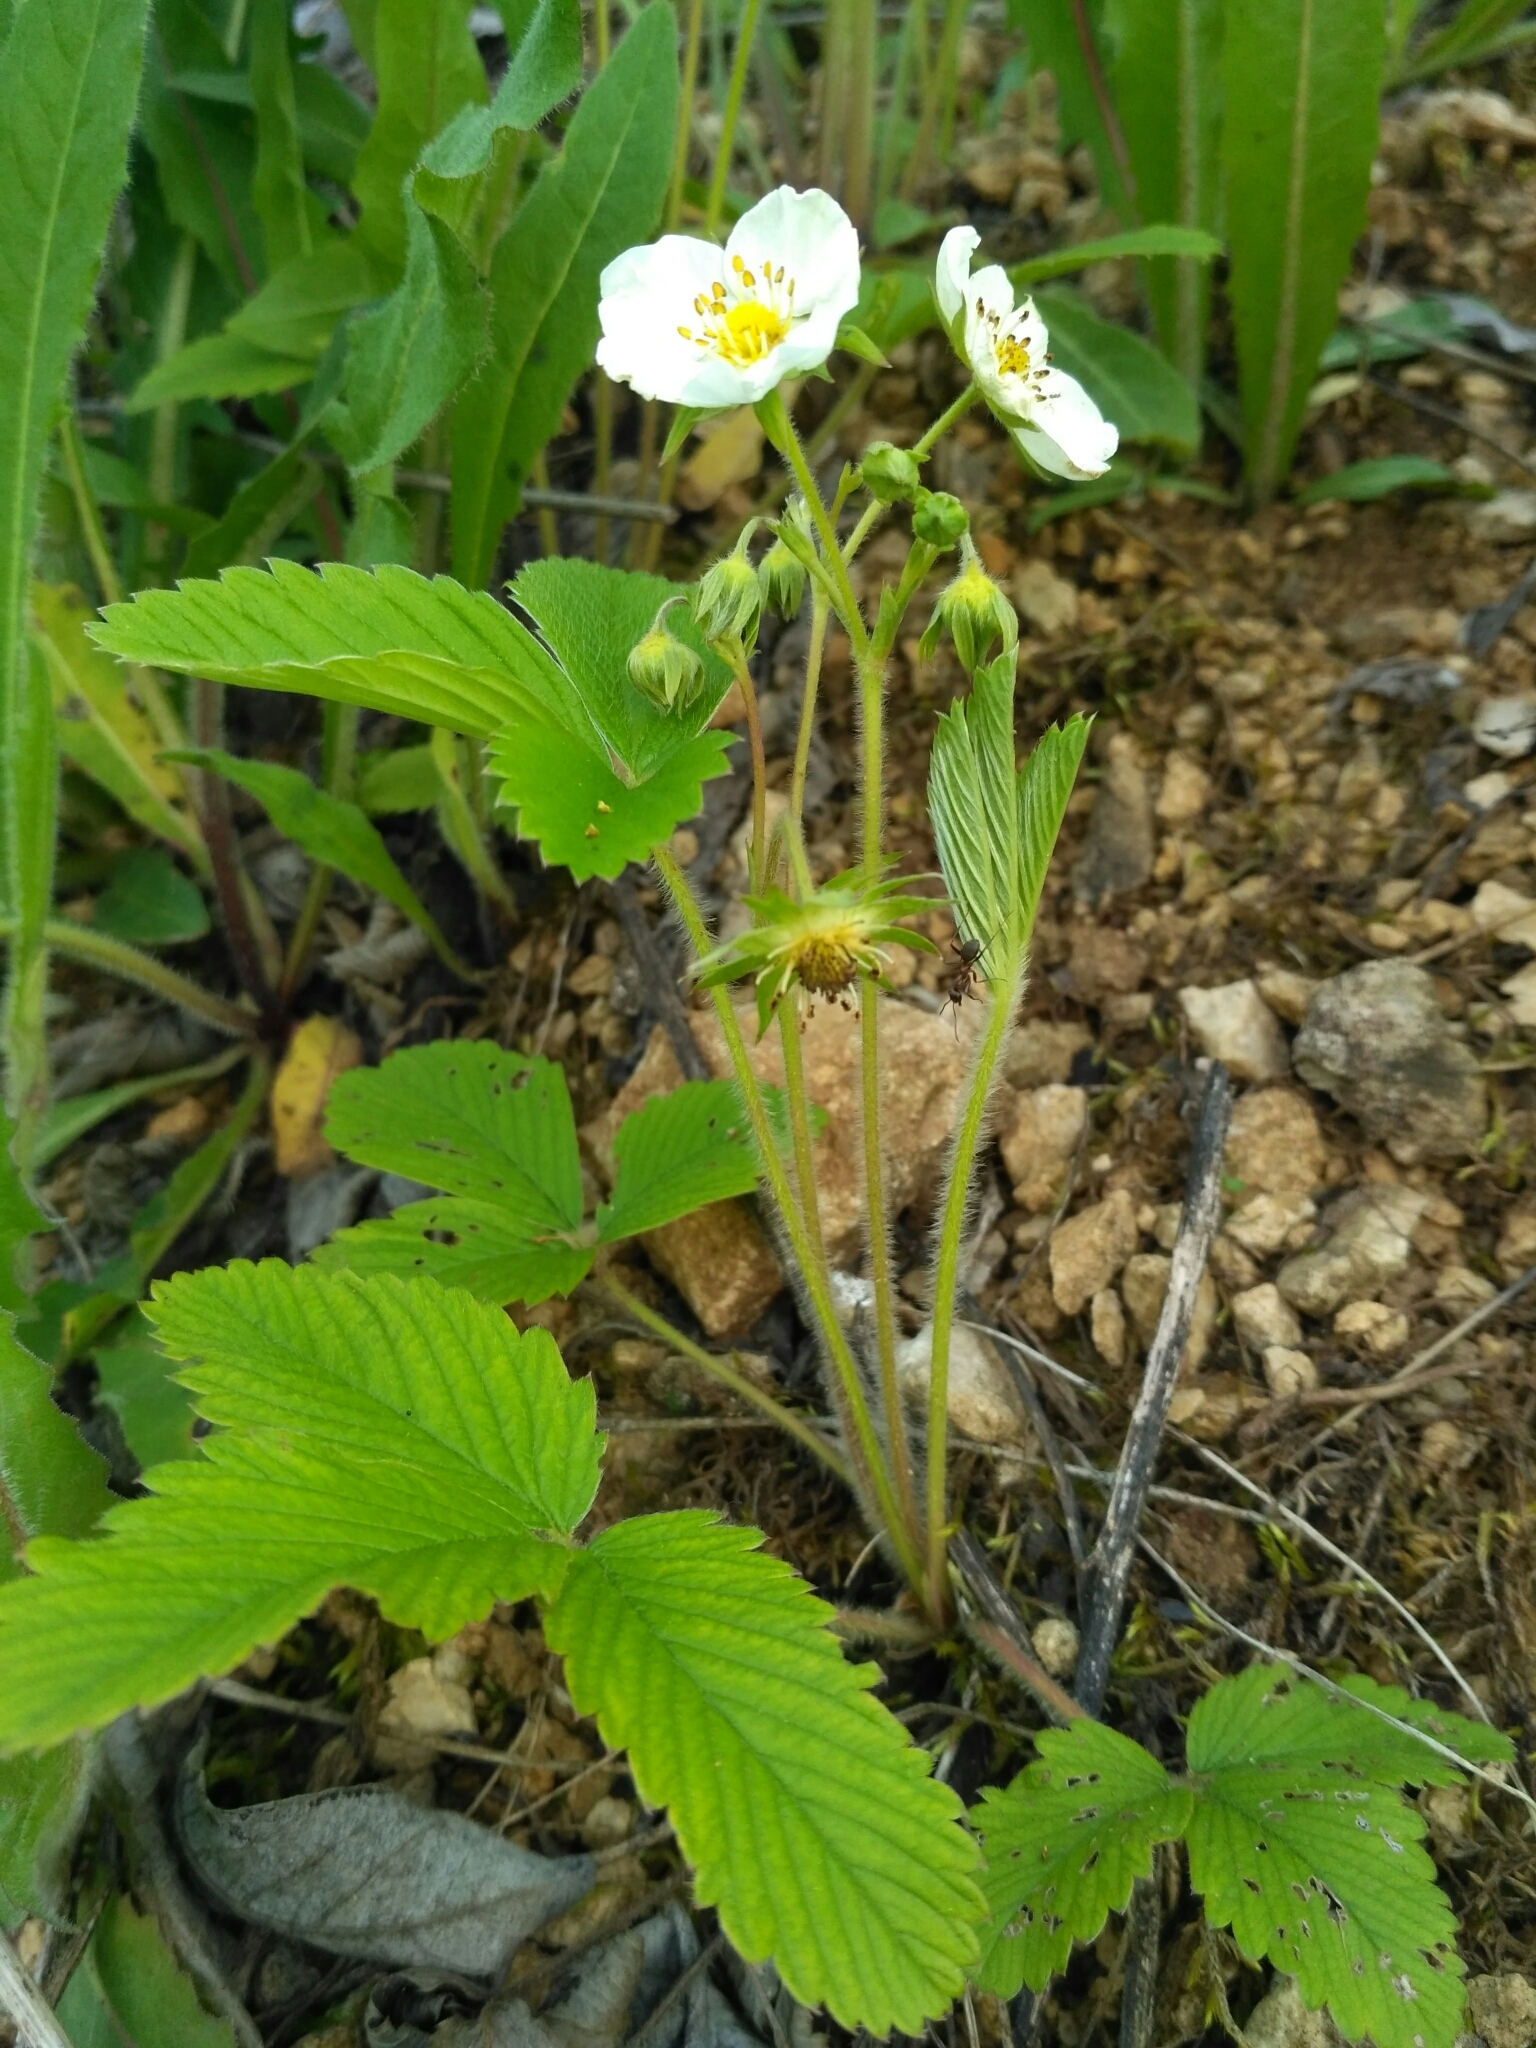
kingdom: Plantae
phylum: Tracheophyta
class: Magnoliopsida
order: Rosales
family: Rosaceae
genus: Fragaria
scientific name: Fragaria viridis
